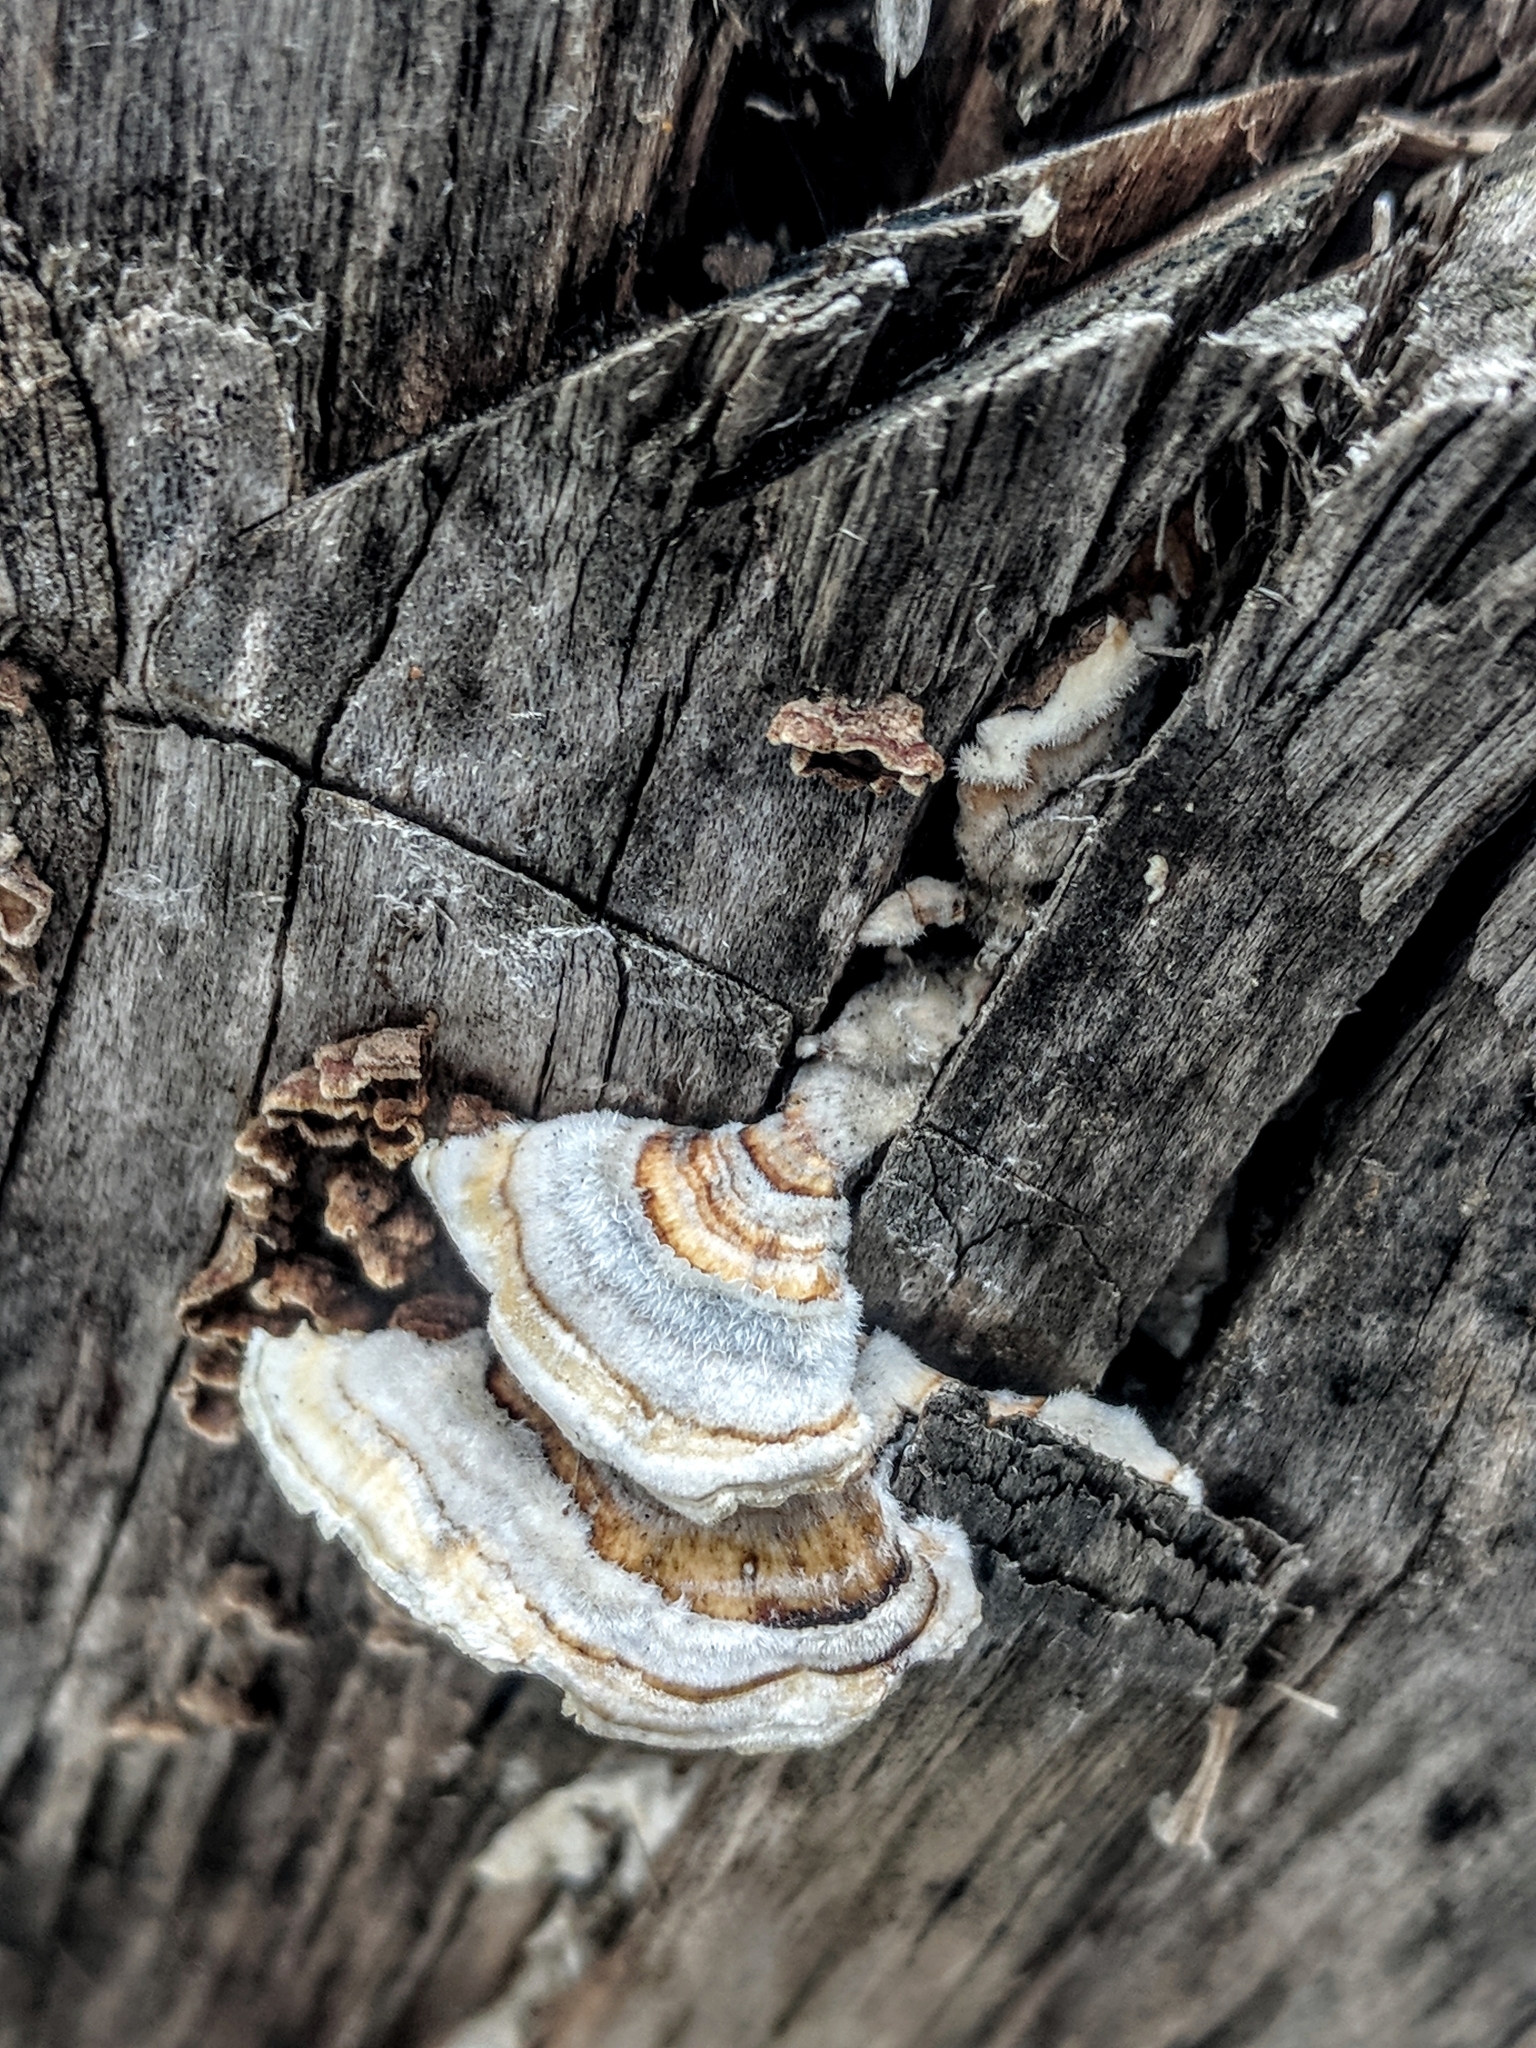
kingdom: Fungi
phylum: Basidiomycota
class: Agaricomycetes
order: Polyporales
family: Polyporaceae
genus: Trametes
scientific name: Trametes versicolor
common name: Turkeytail
